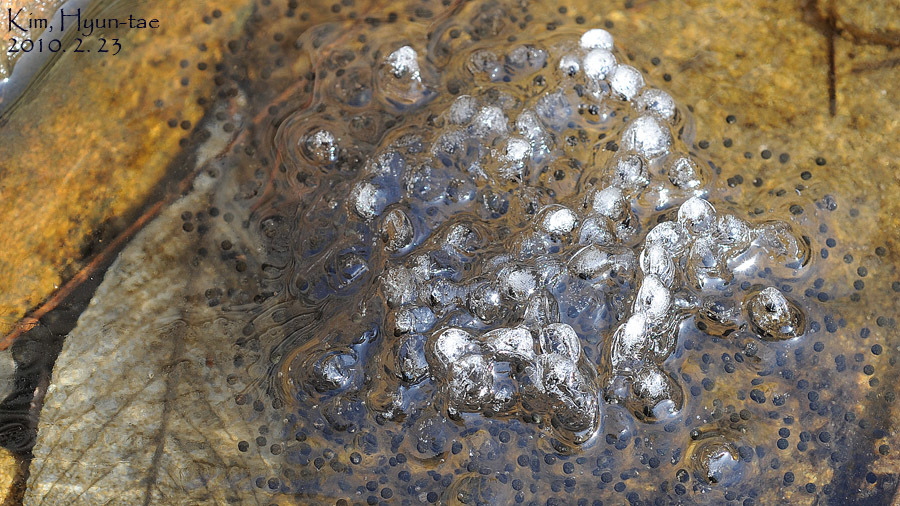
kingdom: Animalia
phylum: Chordata
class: Amphibia
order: Anura
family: Ranidae
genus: Rana
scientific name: Rana uenoi
